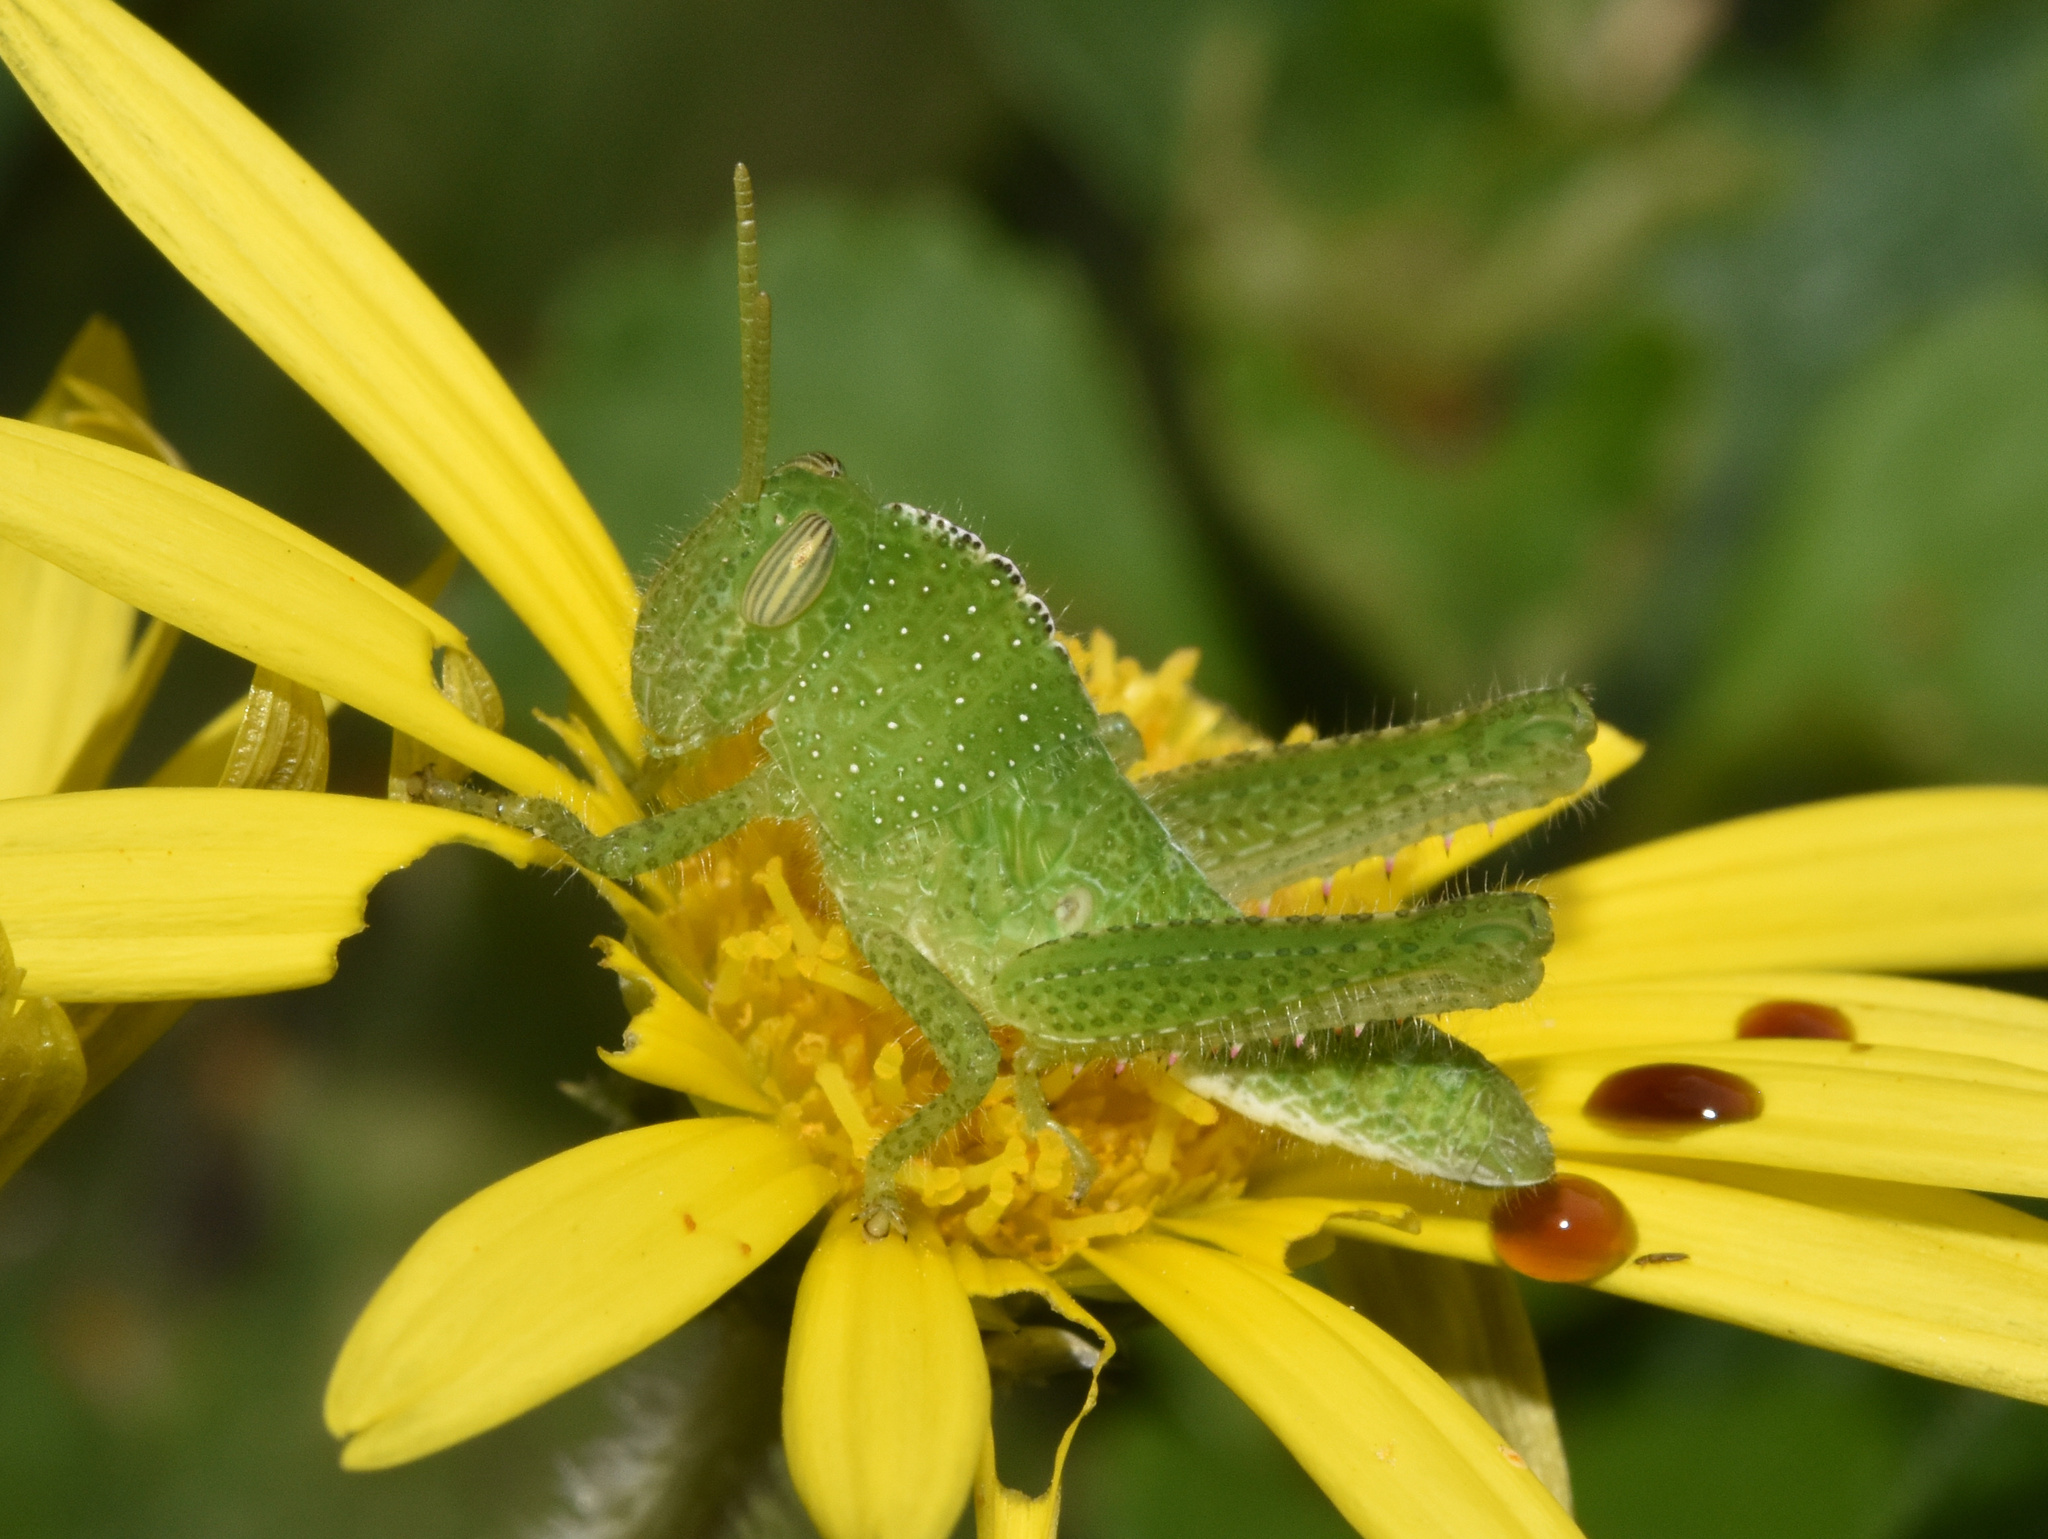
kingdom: Animalia
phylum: Arthropoda
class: Insecta
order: Orthoptera
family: Acrididae
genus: Acanthacris
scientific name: Acanthacris ruficornis
